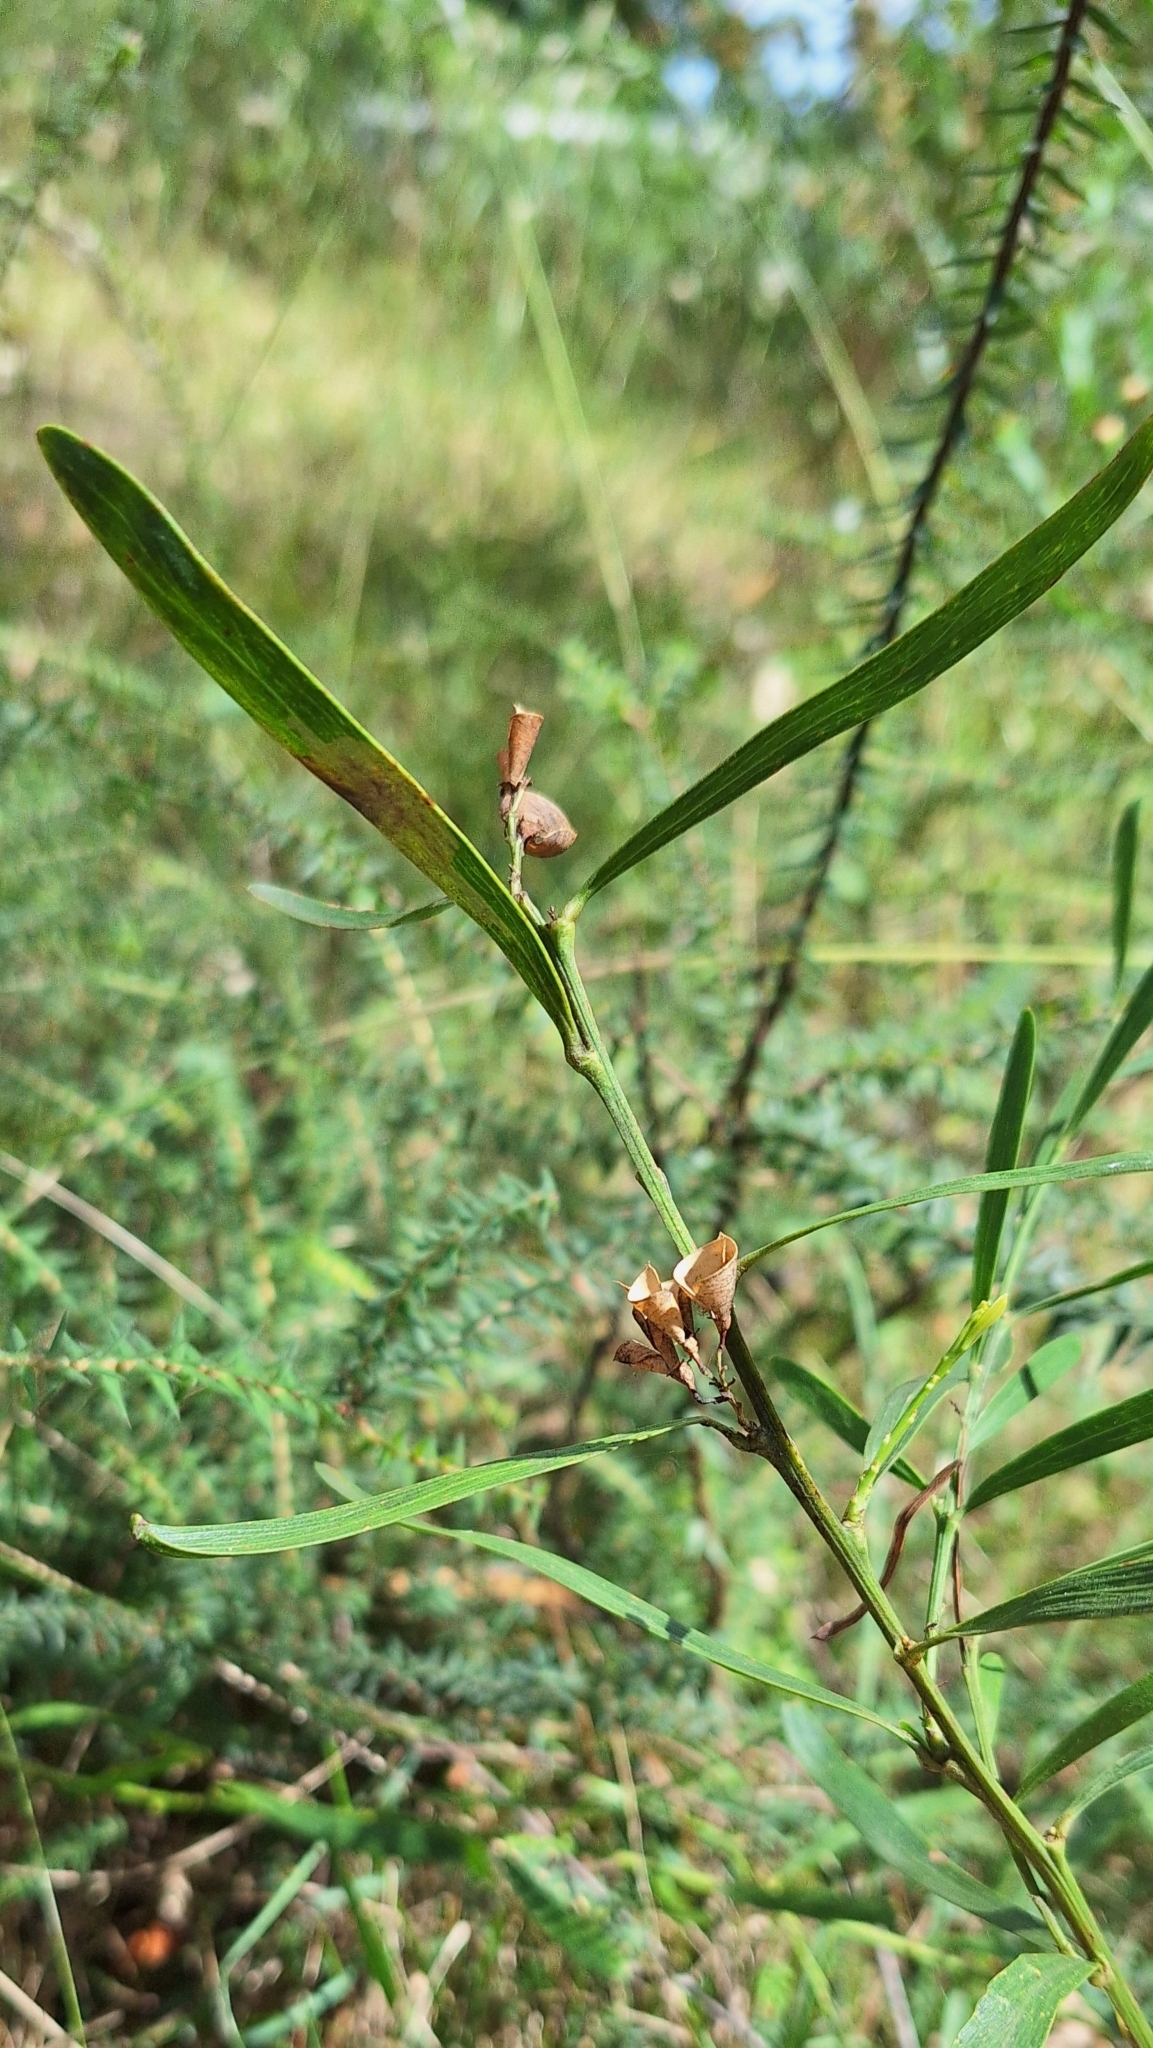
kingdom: Plantae
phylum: Tracheophyta
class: Magnoliopsida
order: Fabales
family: Fabaceae
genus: Daviesia
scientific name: Daviesia leptophylla
